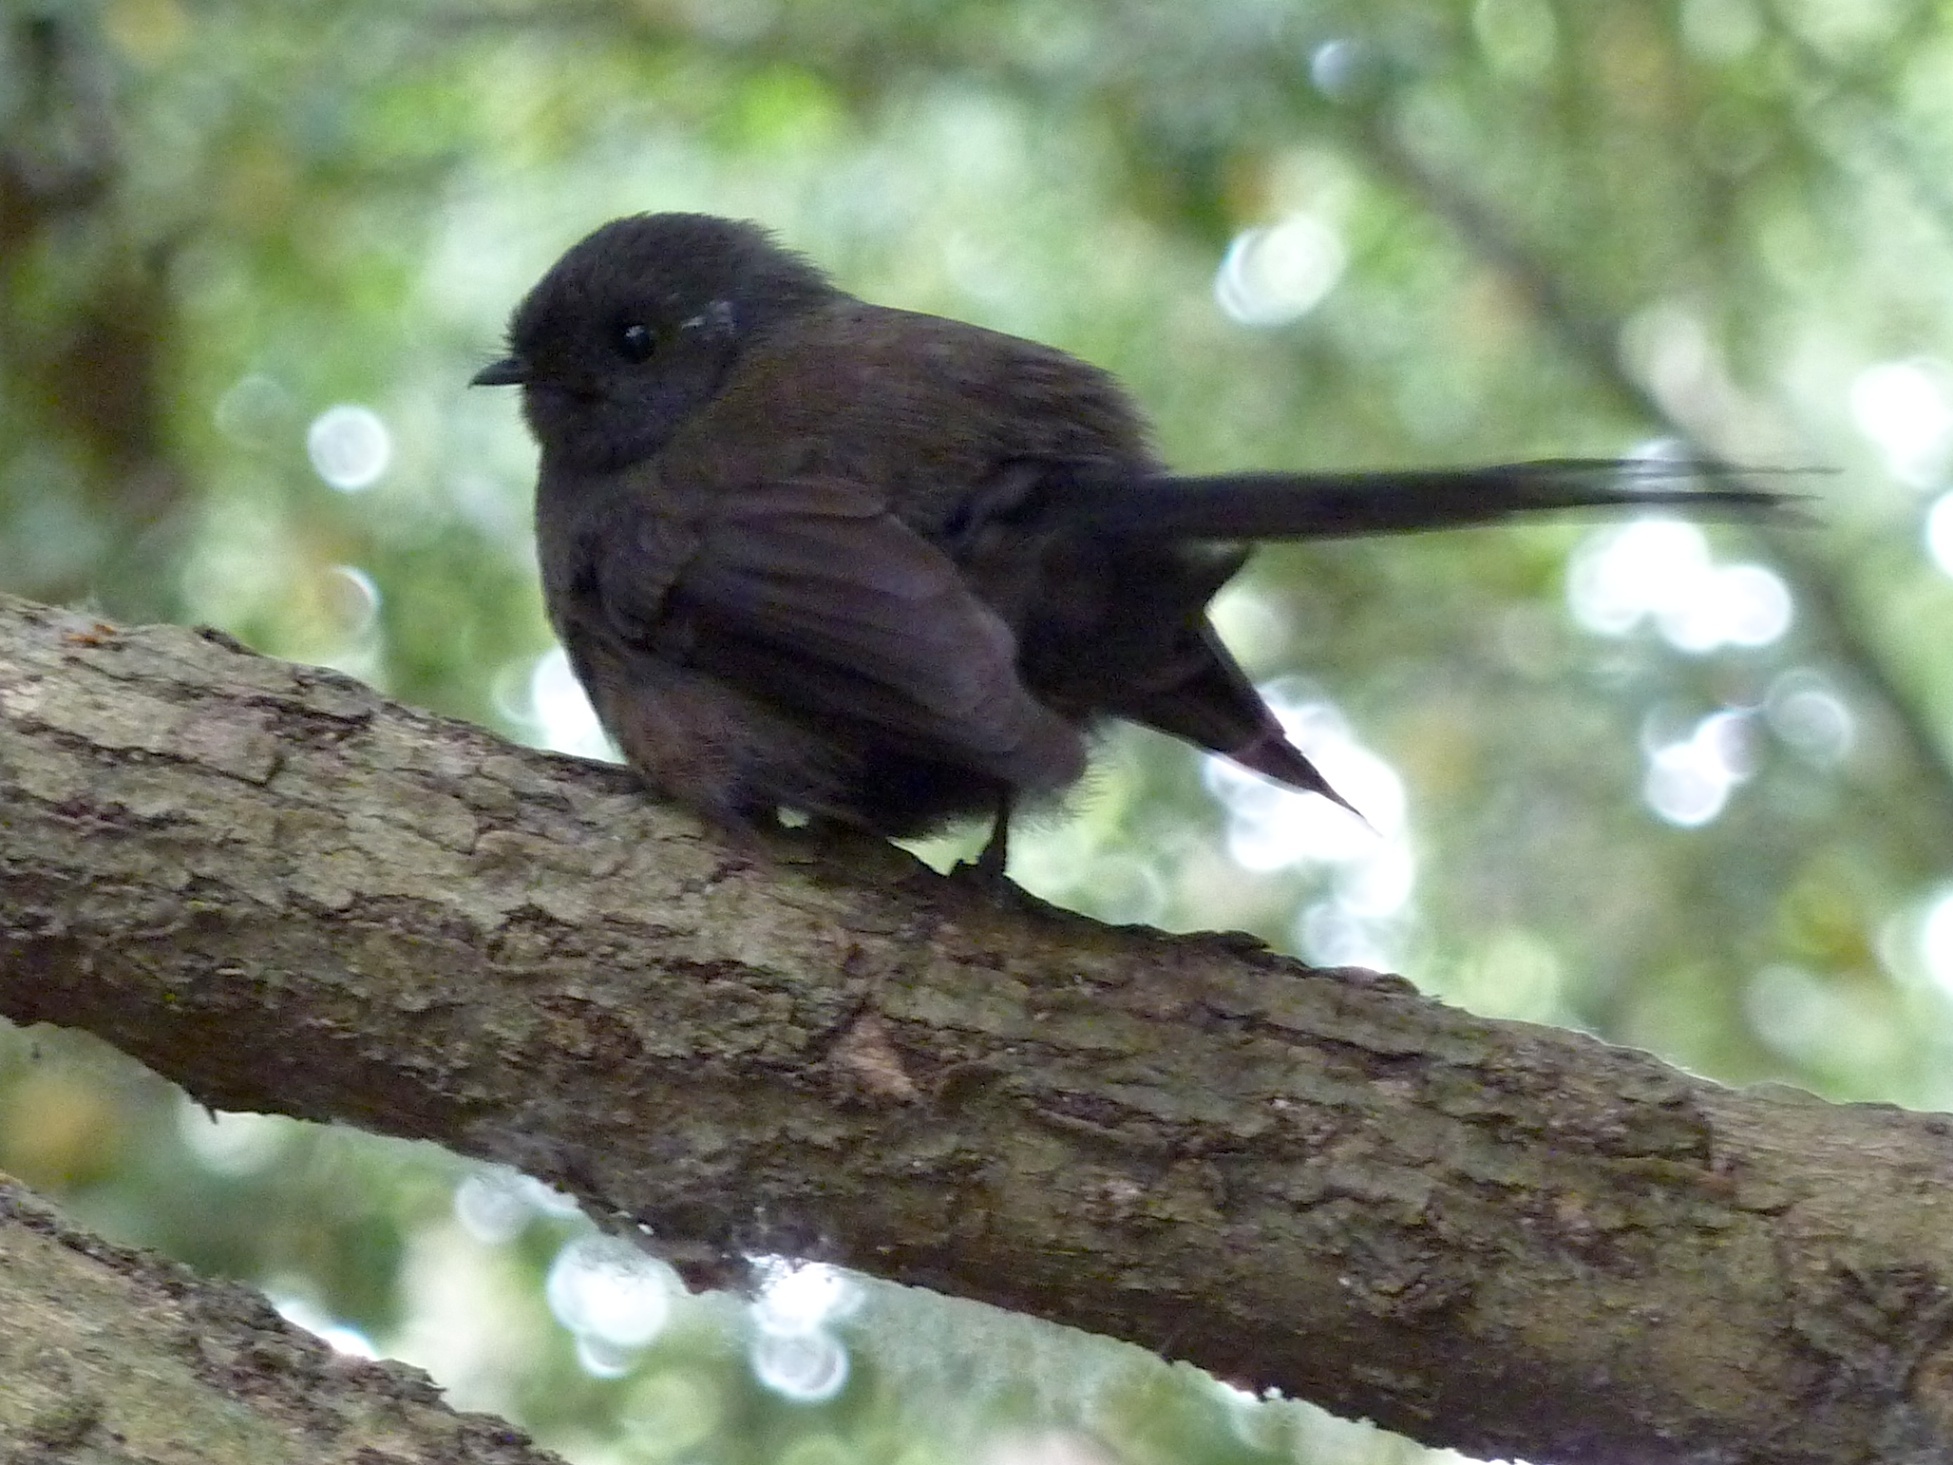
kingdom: Animalia
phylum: Chordata
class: Aves
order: Passeriformes
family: Rhipiduridae
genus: Rhipidura
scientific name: Rhipidura fuliginosa
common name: New zealand fantail
